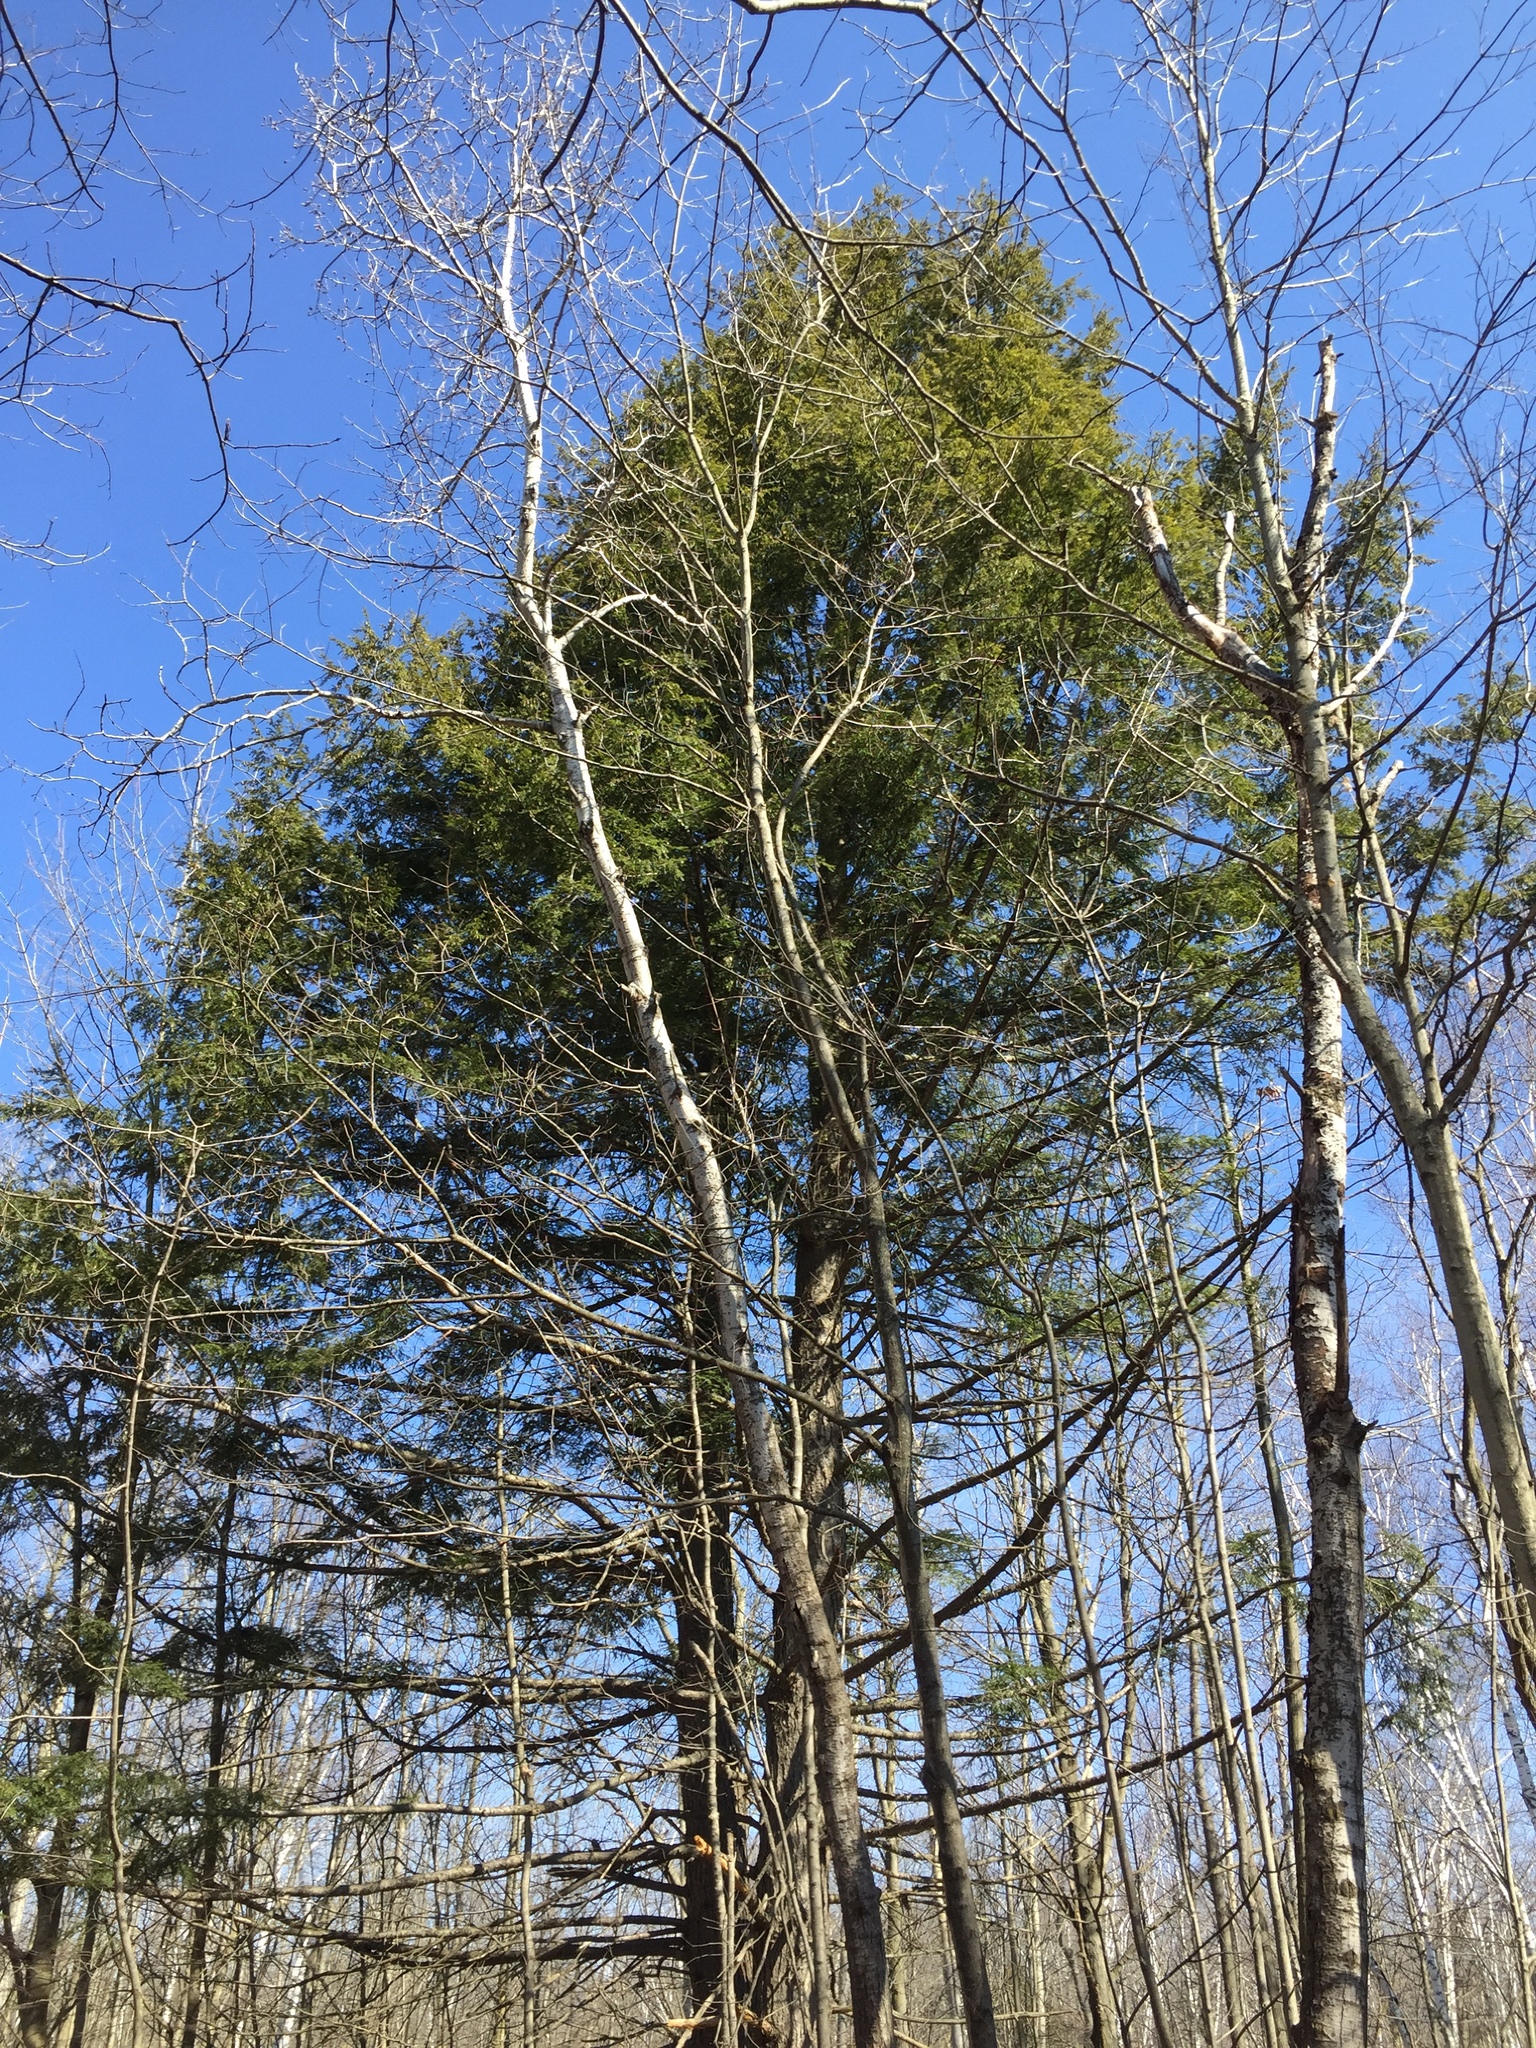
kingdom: Plantae
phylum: Tracheophyta
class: Pinopsida
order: Pinales
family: Pinaceae
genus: Tsuga
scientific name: Tsuga canadensis
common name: Eastern hemlock
